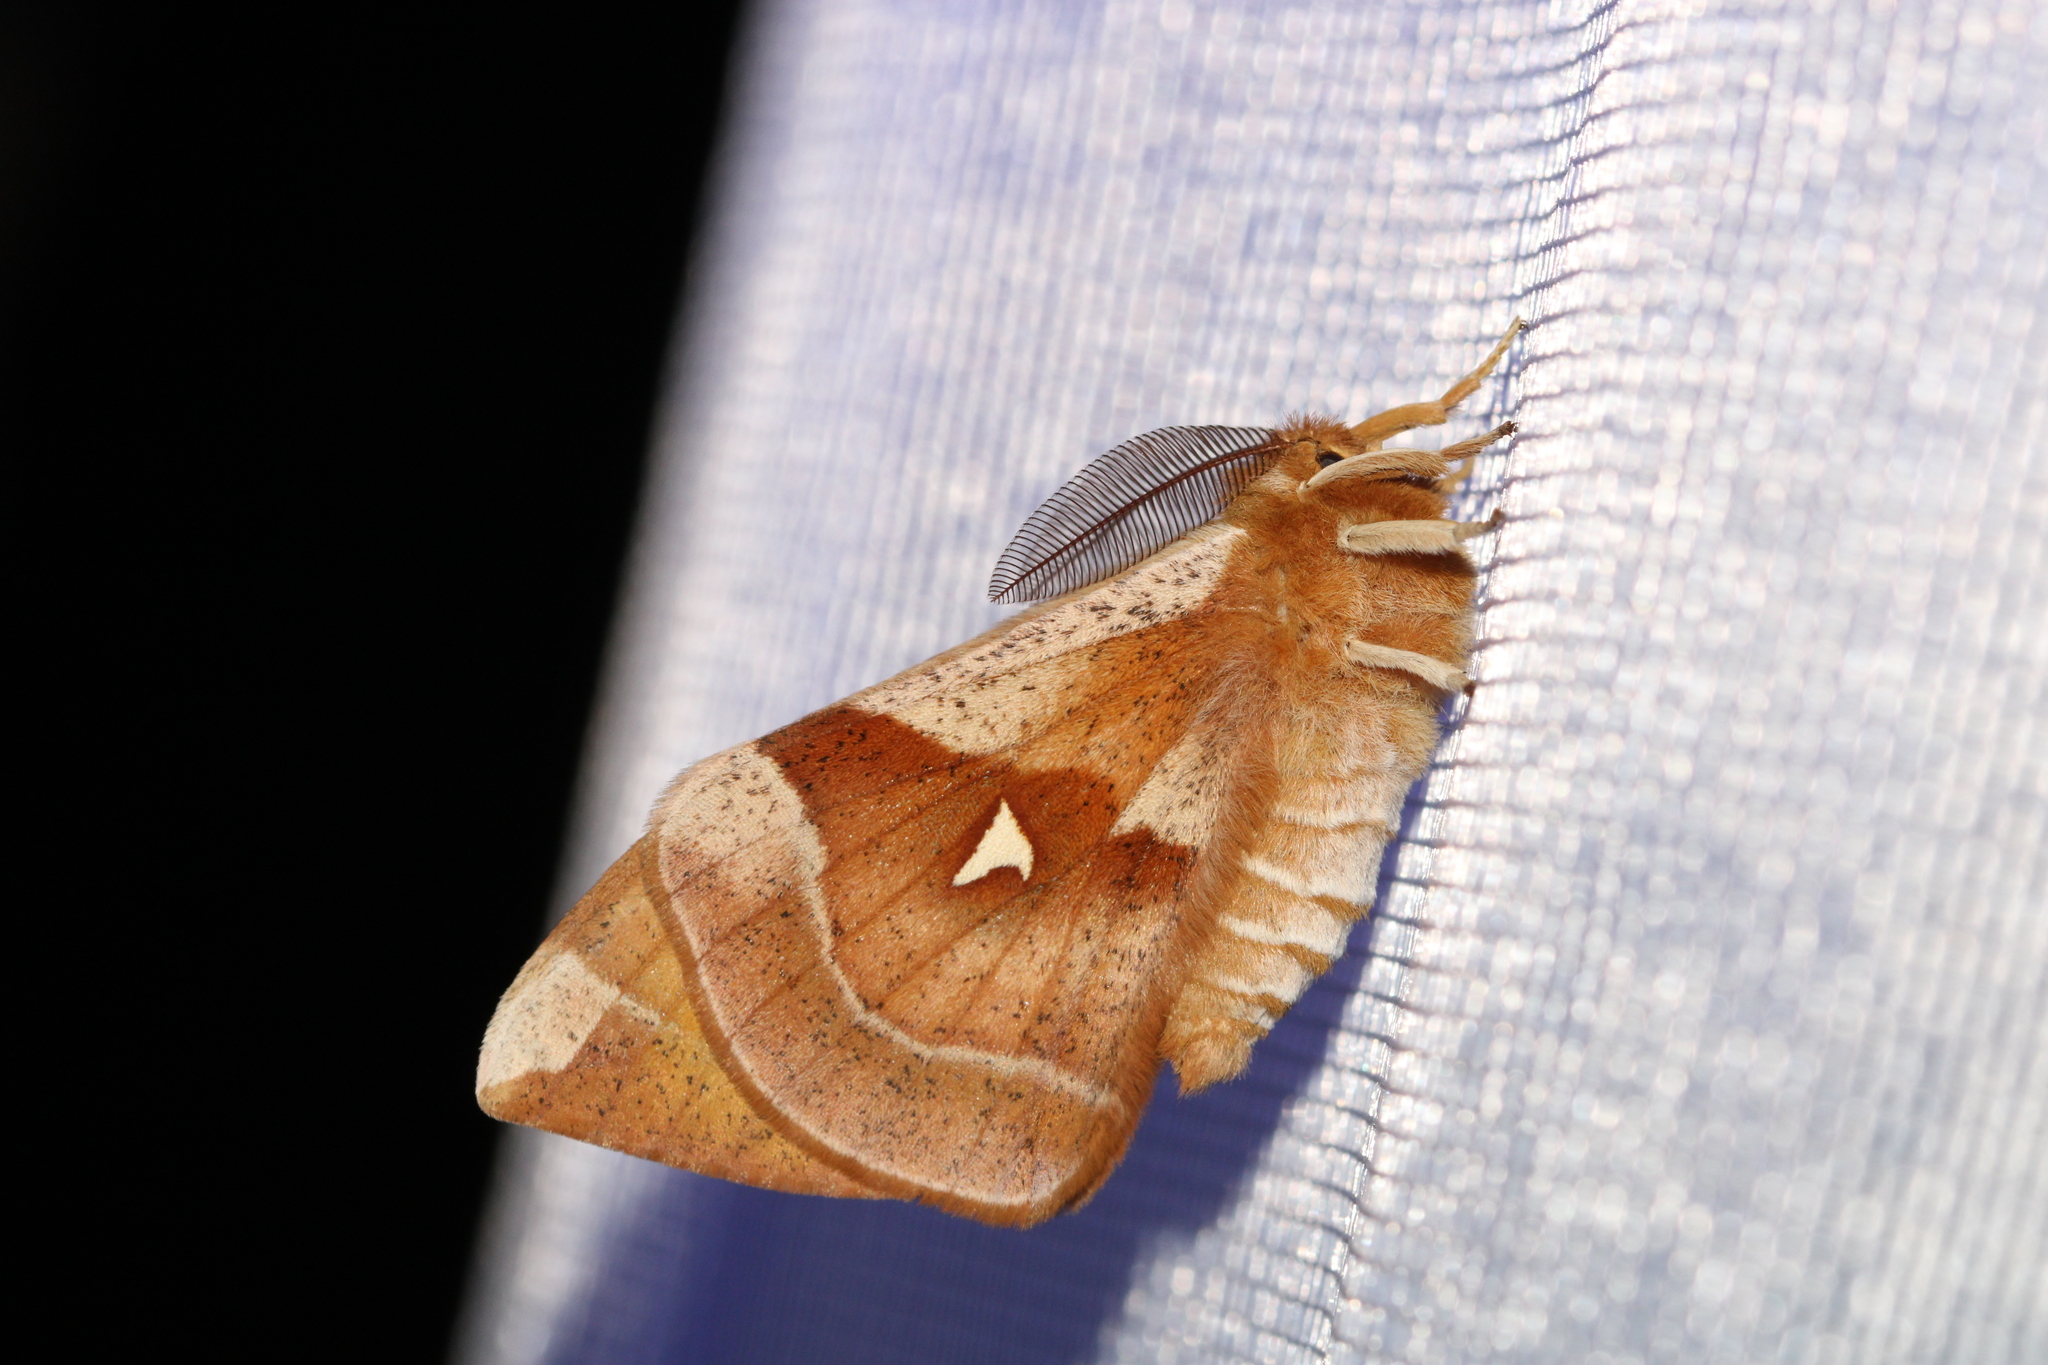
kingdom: Animalia
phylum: Arthropoda
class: Insecta
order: Lepidoptera
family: Saturniidae
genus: Aglia
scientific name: Aglia tau
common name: Tau emperor
